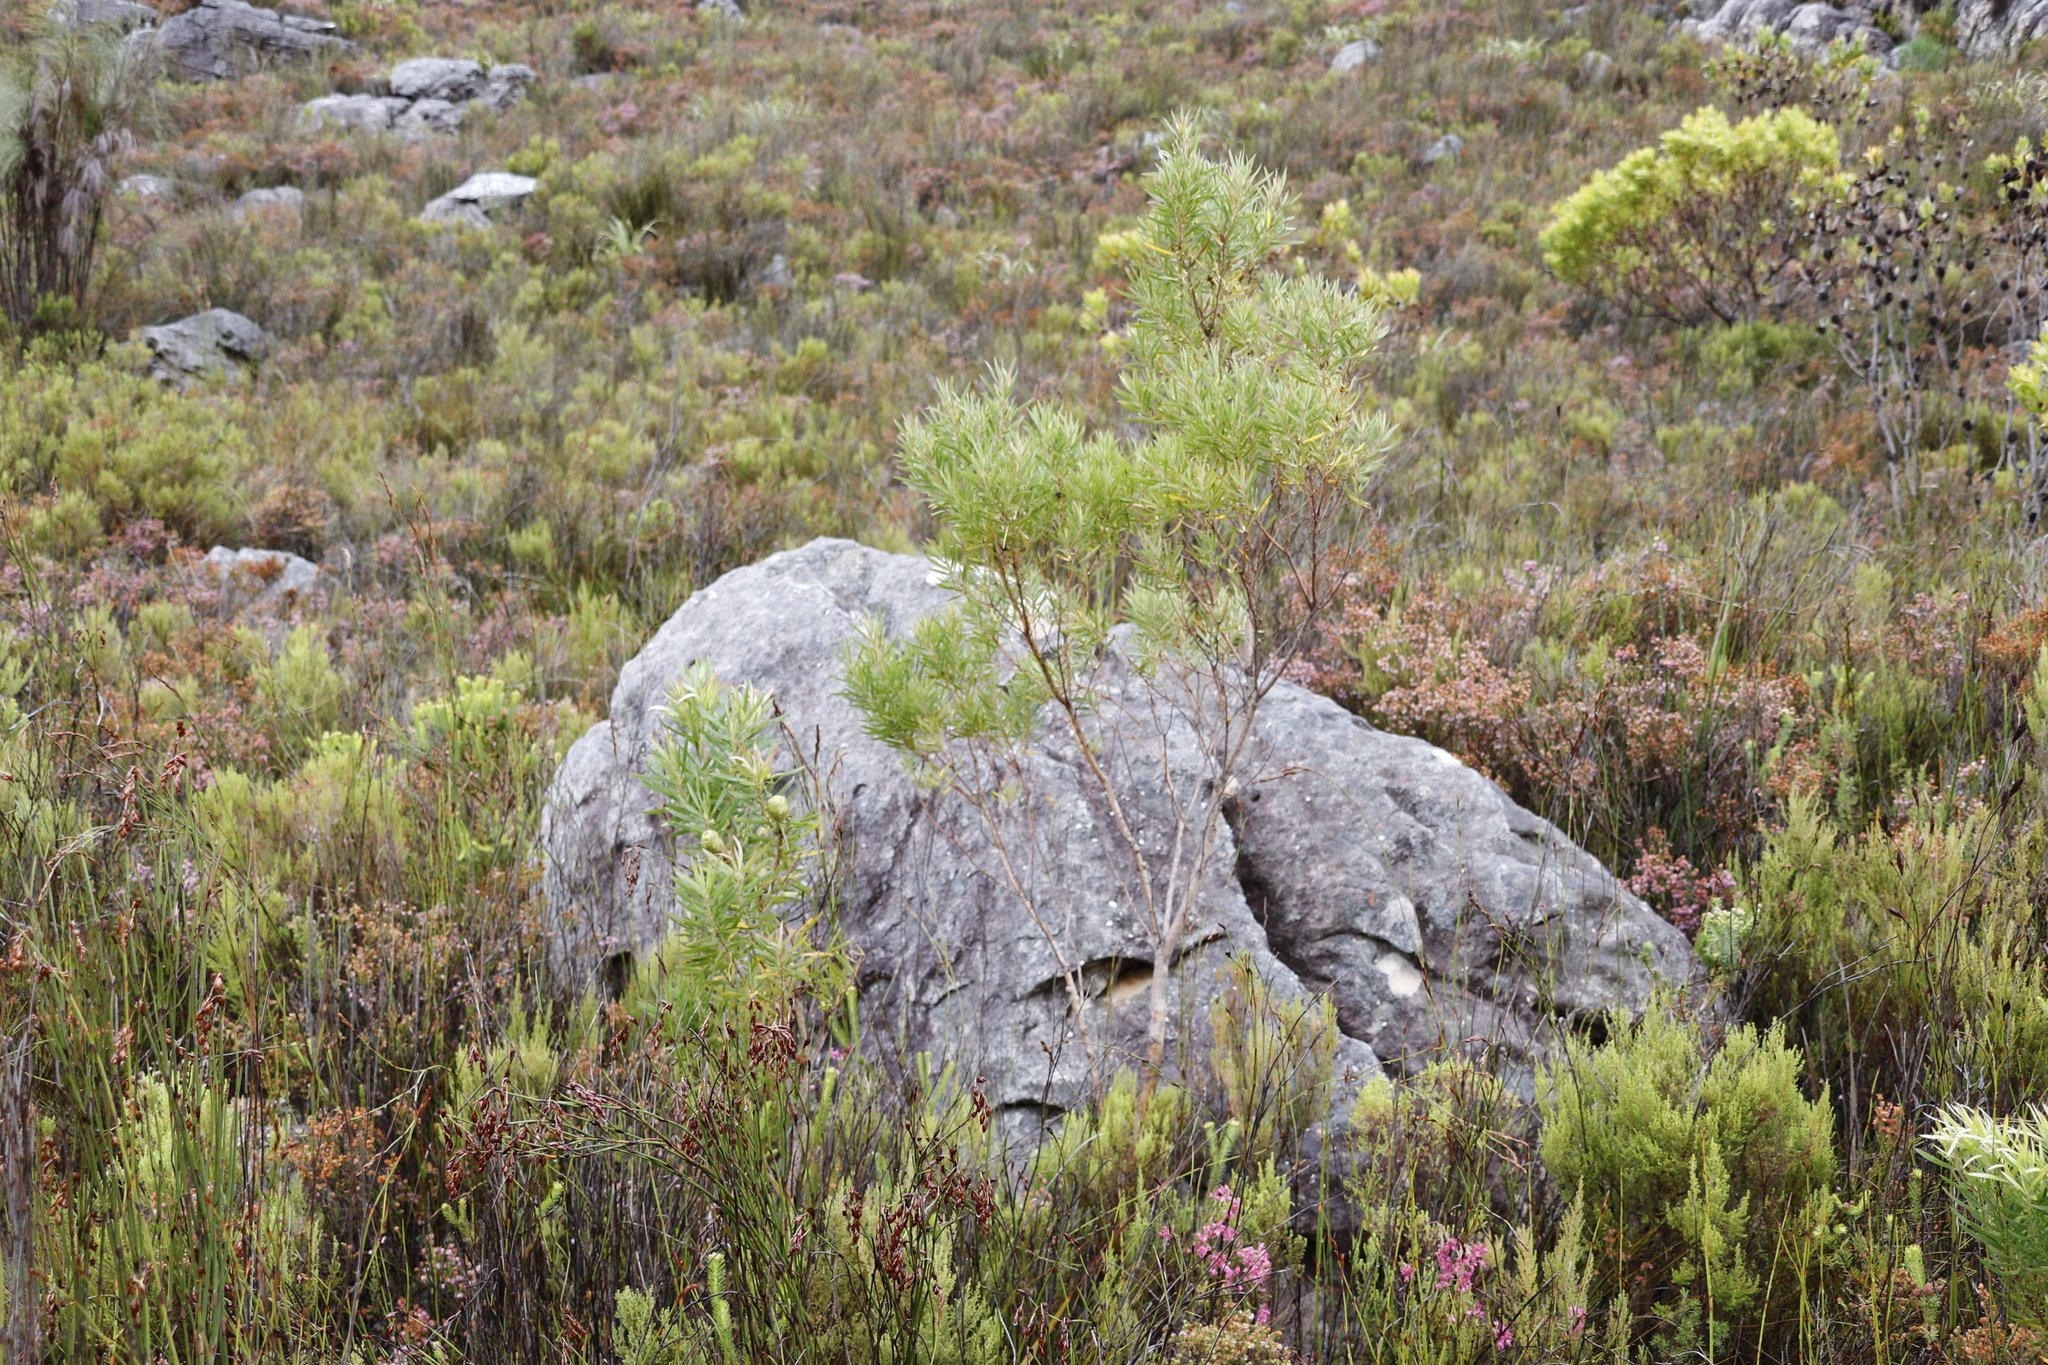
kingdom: Plantae
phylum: Tracheophyta
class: Magnoliopsida
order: Proteales
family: Proteaceae
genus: Leucadendron
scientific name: Leucadendron salicifolium
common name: Common stream conebush
